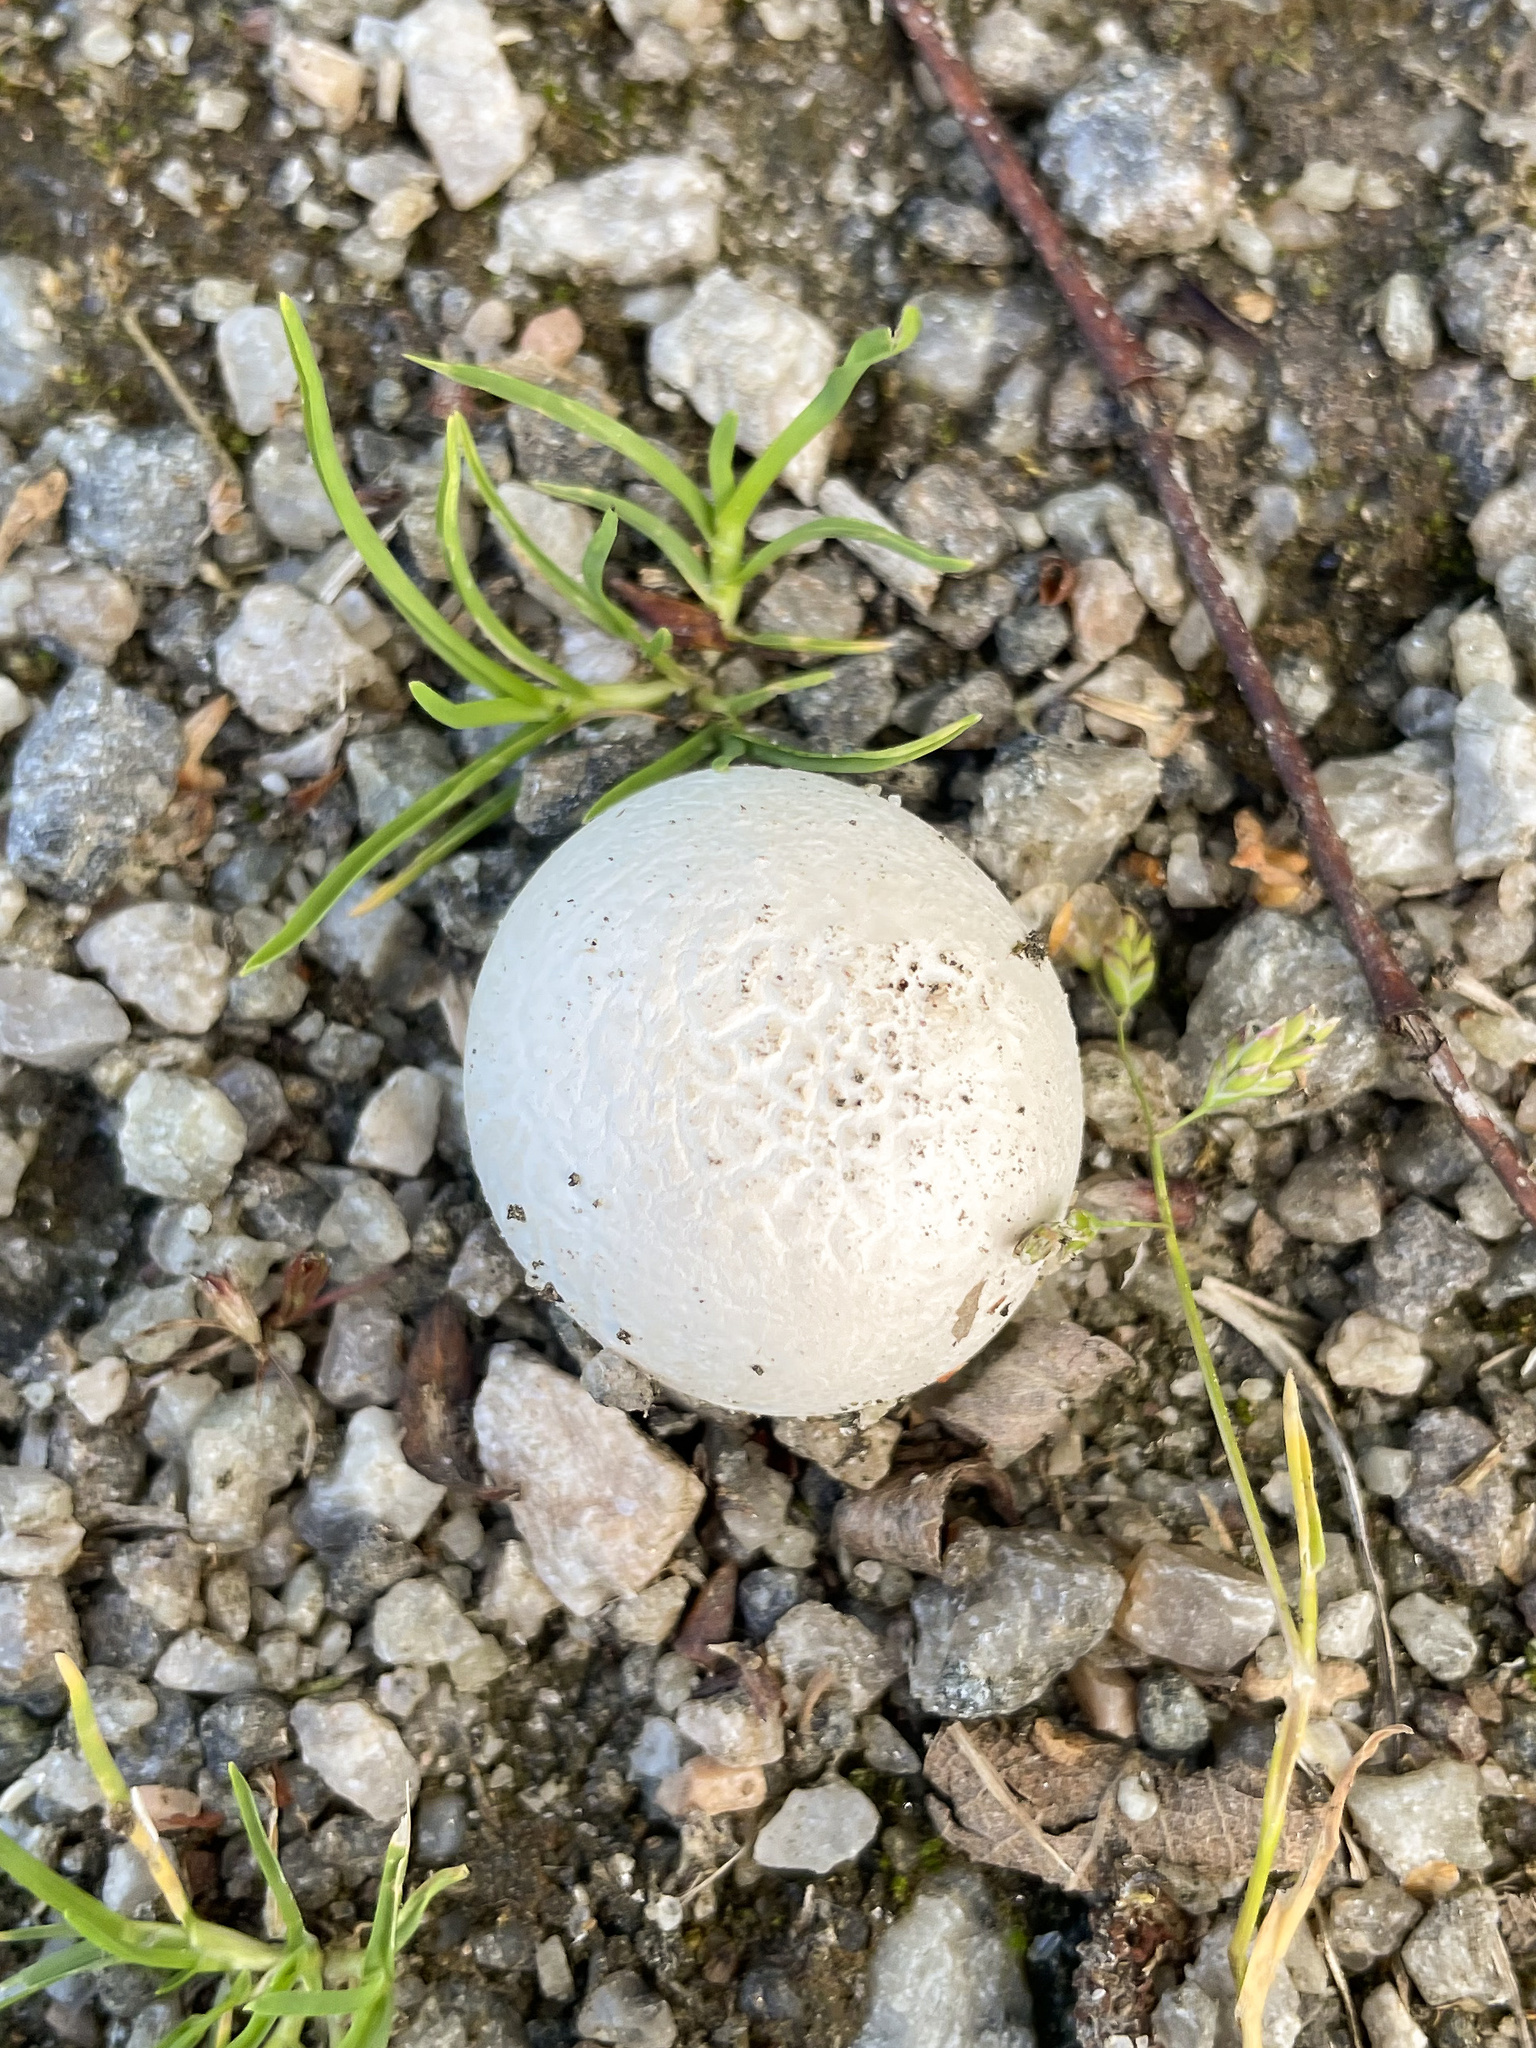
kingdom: Fungi
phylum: Basidiomycota
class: Agaricomycetes
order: Agaricales
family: Lycoperdaceae
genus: Bovista
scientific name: Bovista plumbea
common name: Grey puffball
